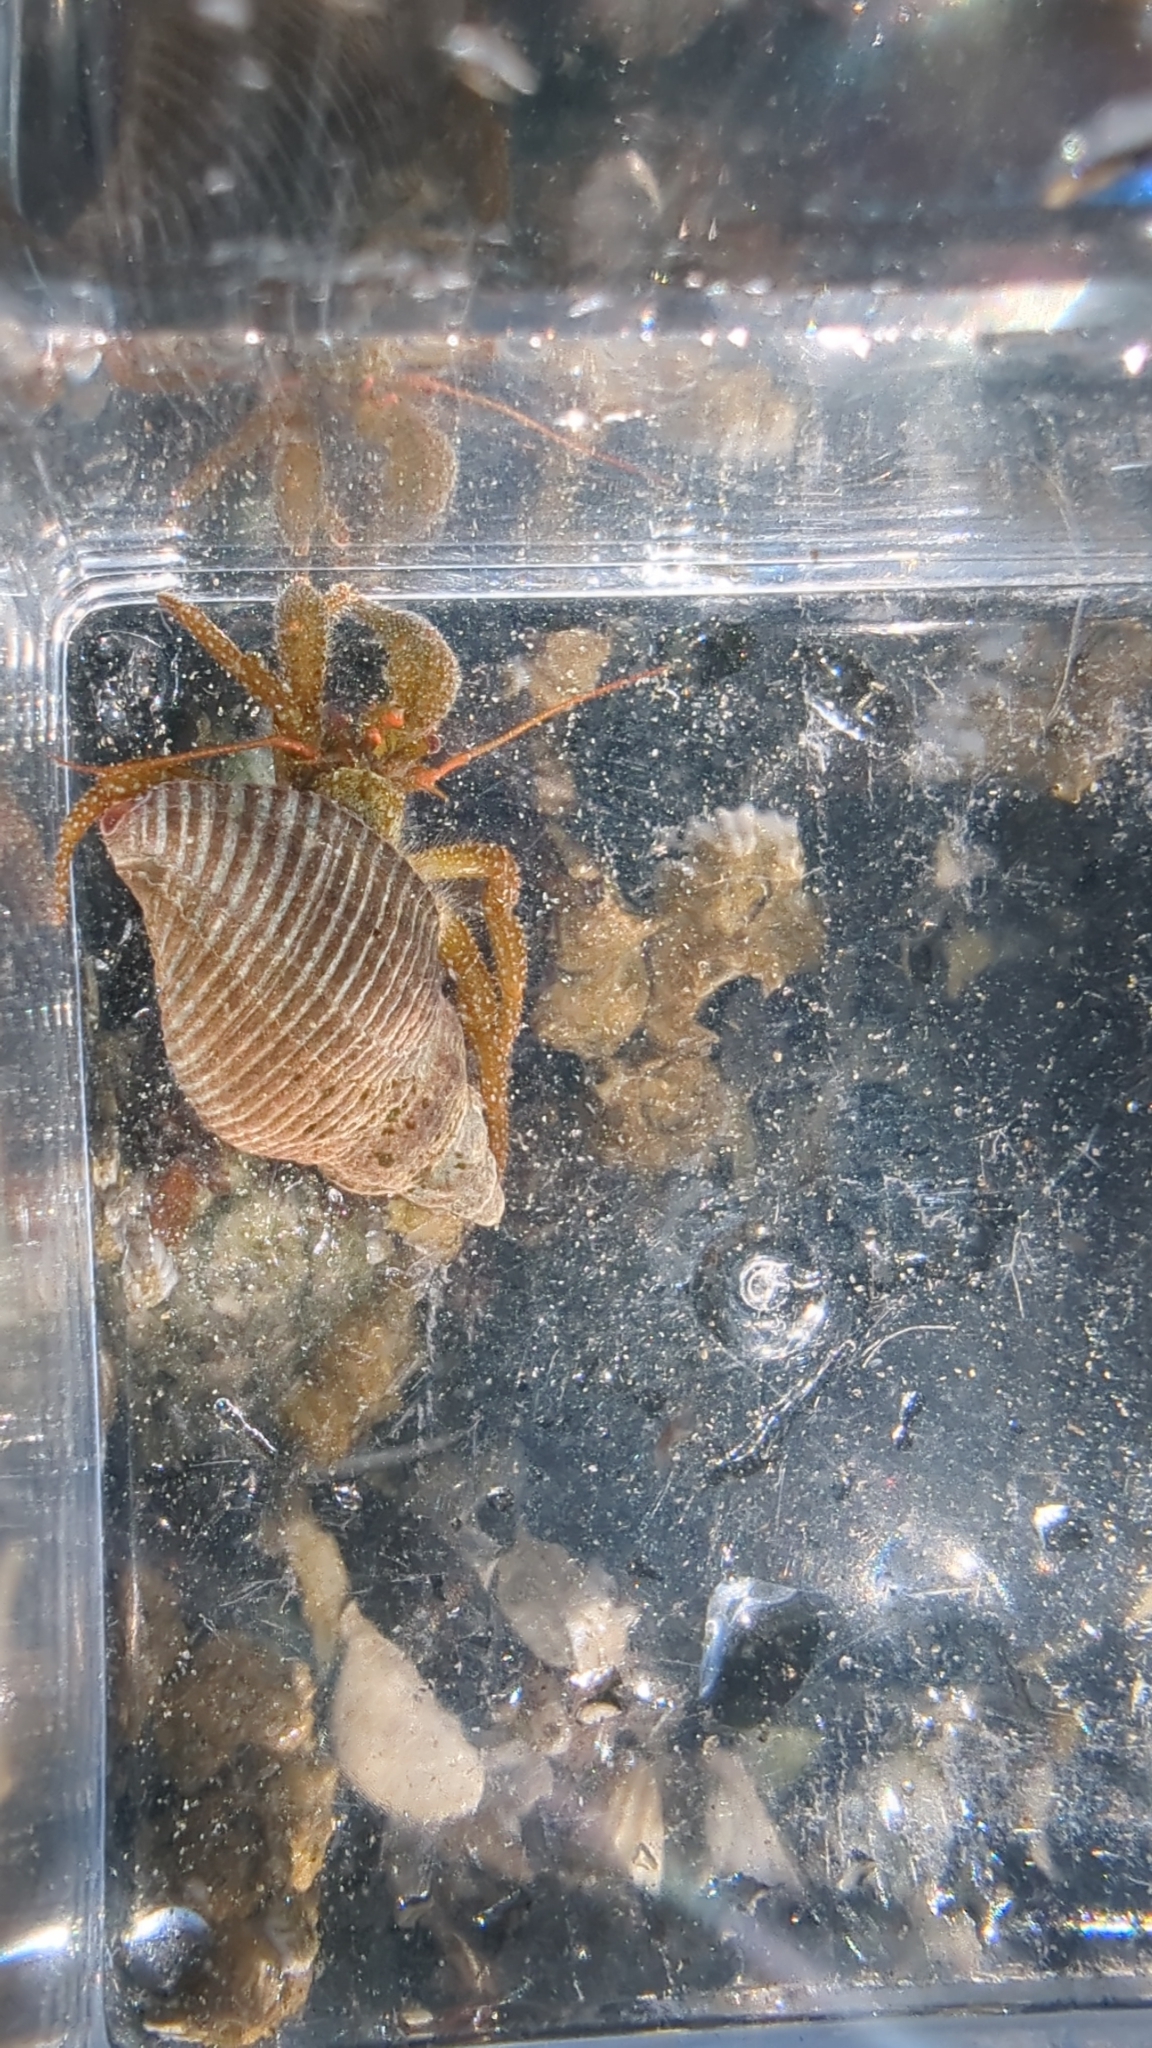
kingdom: Animalia
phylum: Arthropoda
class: Malacostraca
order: Decapoda
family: Paguridae
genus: Pagurus
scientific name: Pagurus granosimanus
